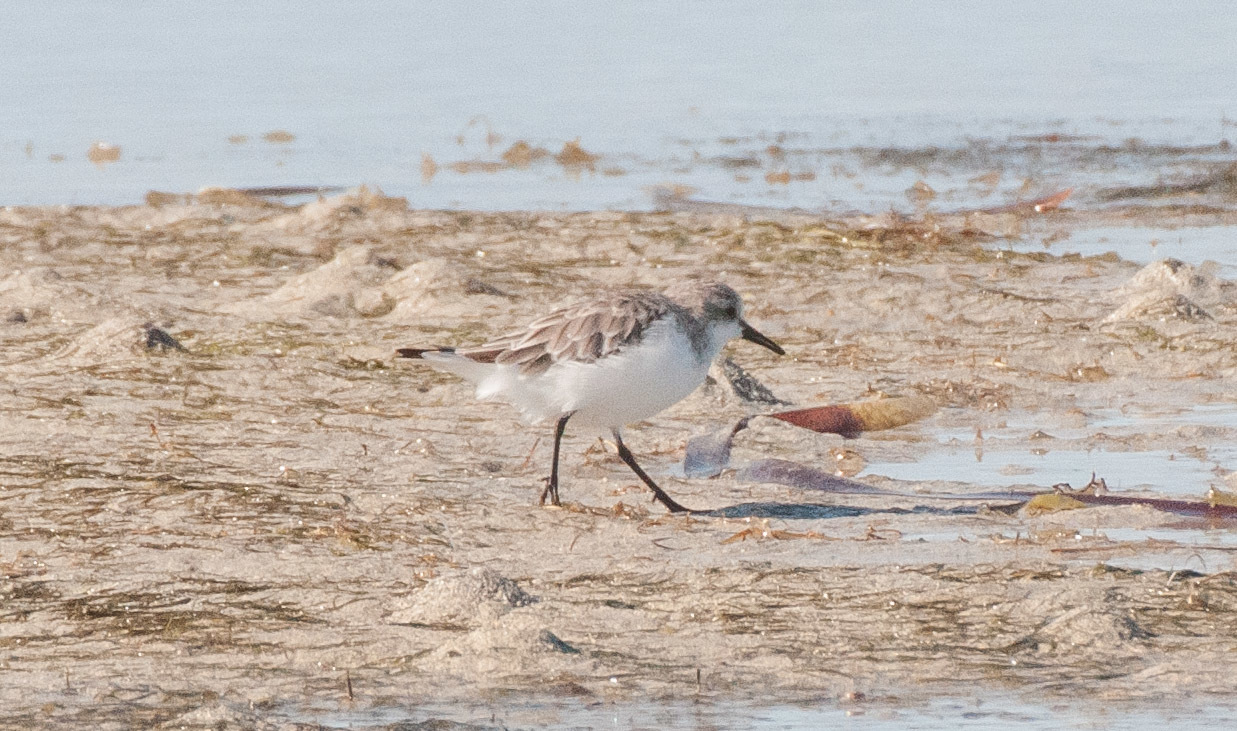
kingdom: Animalia
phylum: Chordata
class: Aves
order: Charadriiformes
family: Scolopacidae
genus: Calidris
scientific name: Calidris ruficollis
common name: Red-necked stint
